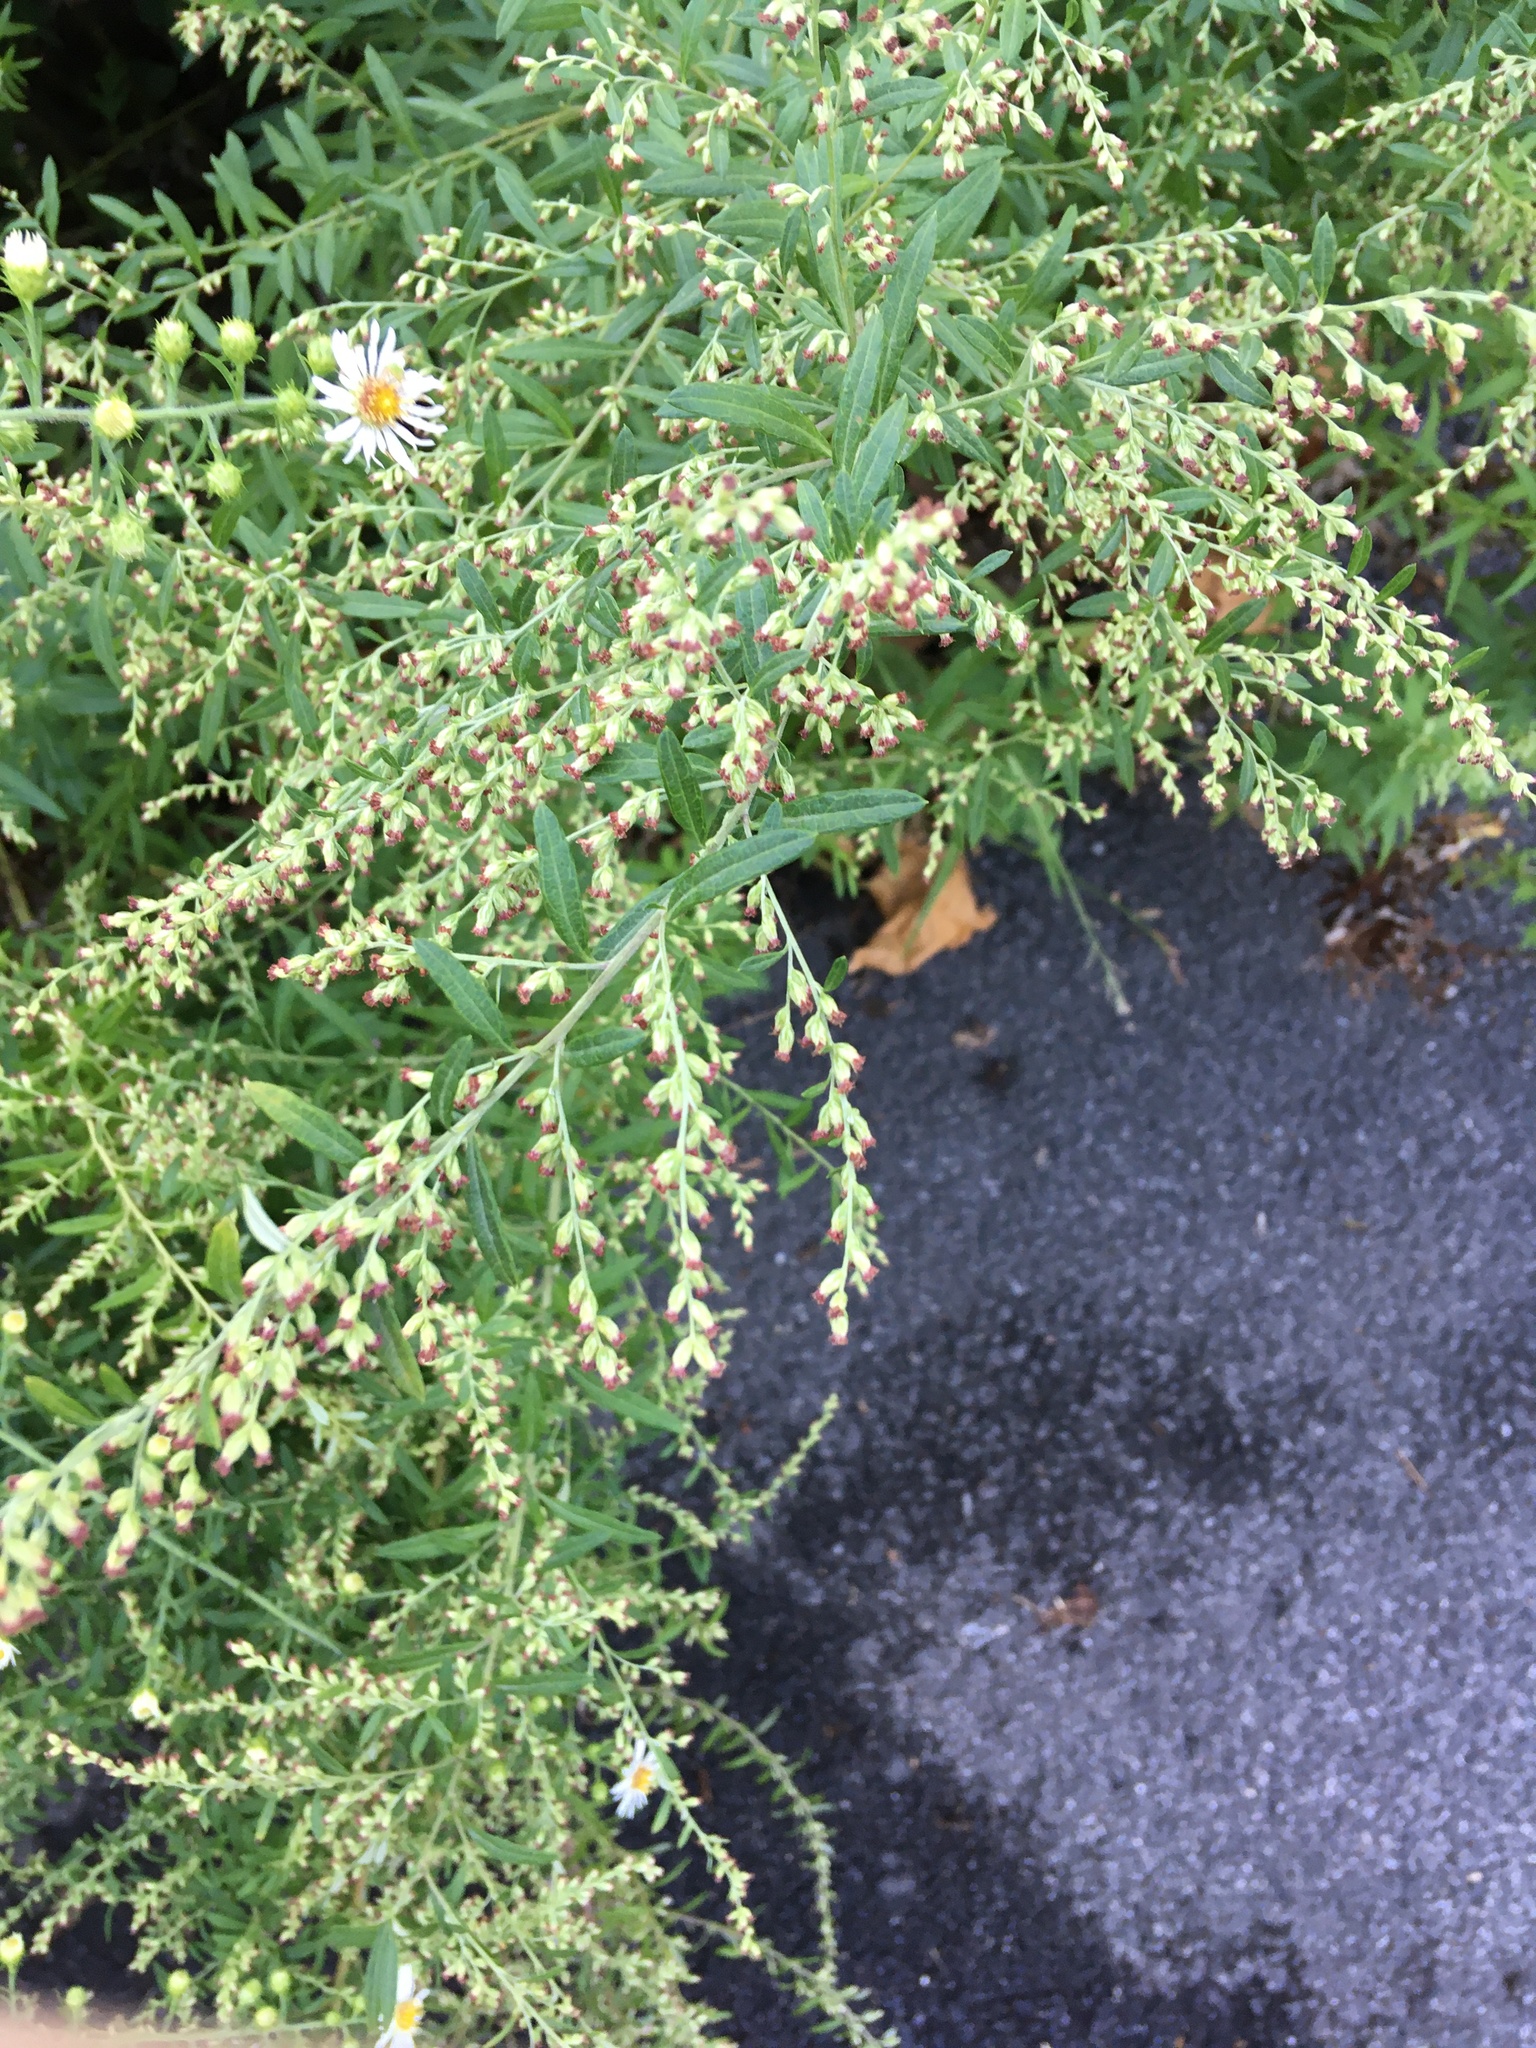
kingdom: Plantae
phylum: Tracheophyta
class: Magnoliopsida
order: Asterales
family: Asteraceae
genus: Artemisia
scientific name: Artemisia vulgaris
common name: Mugwort
